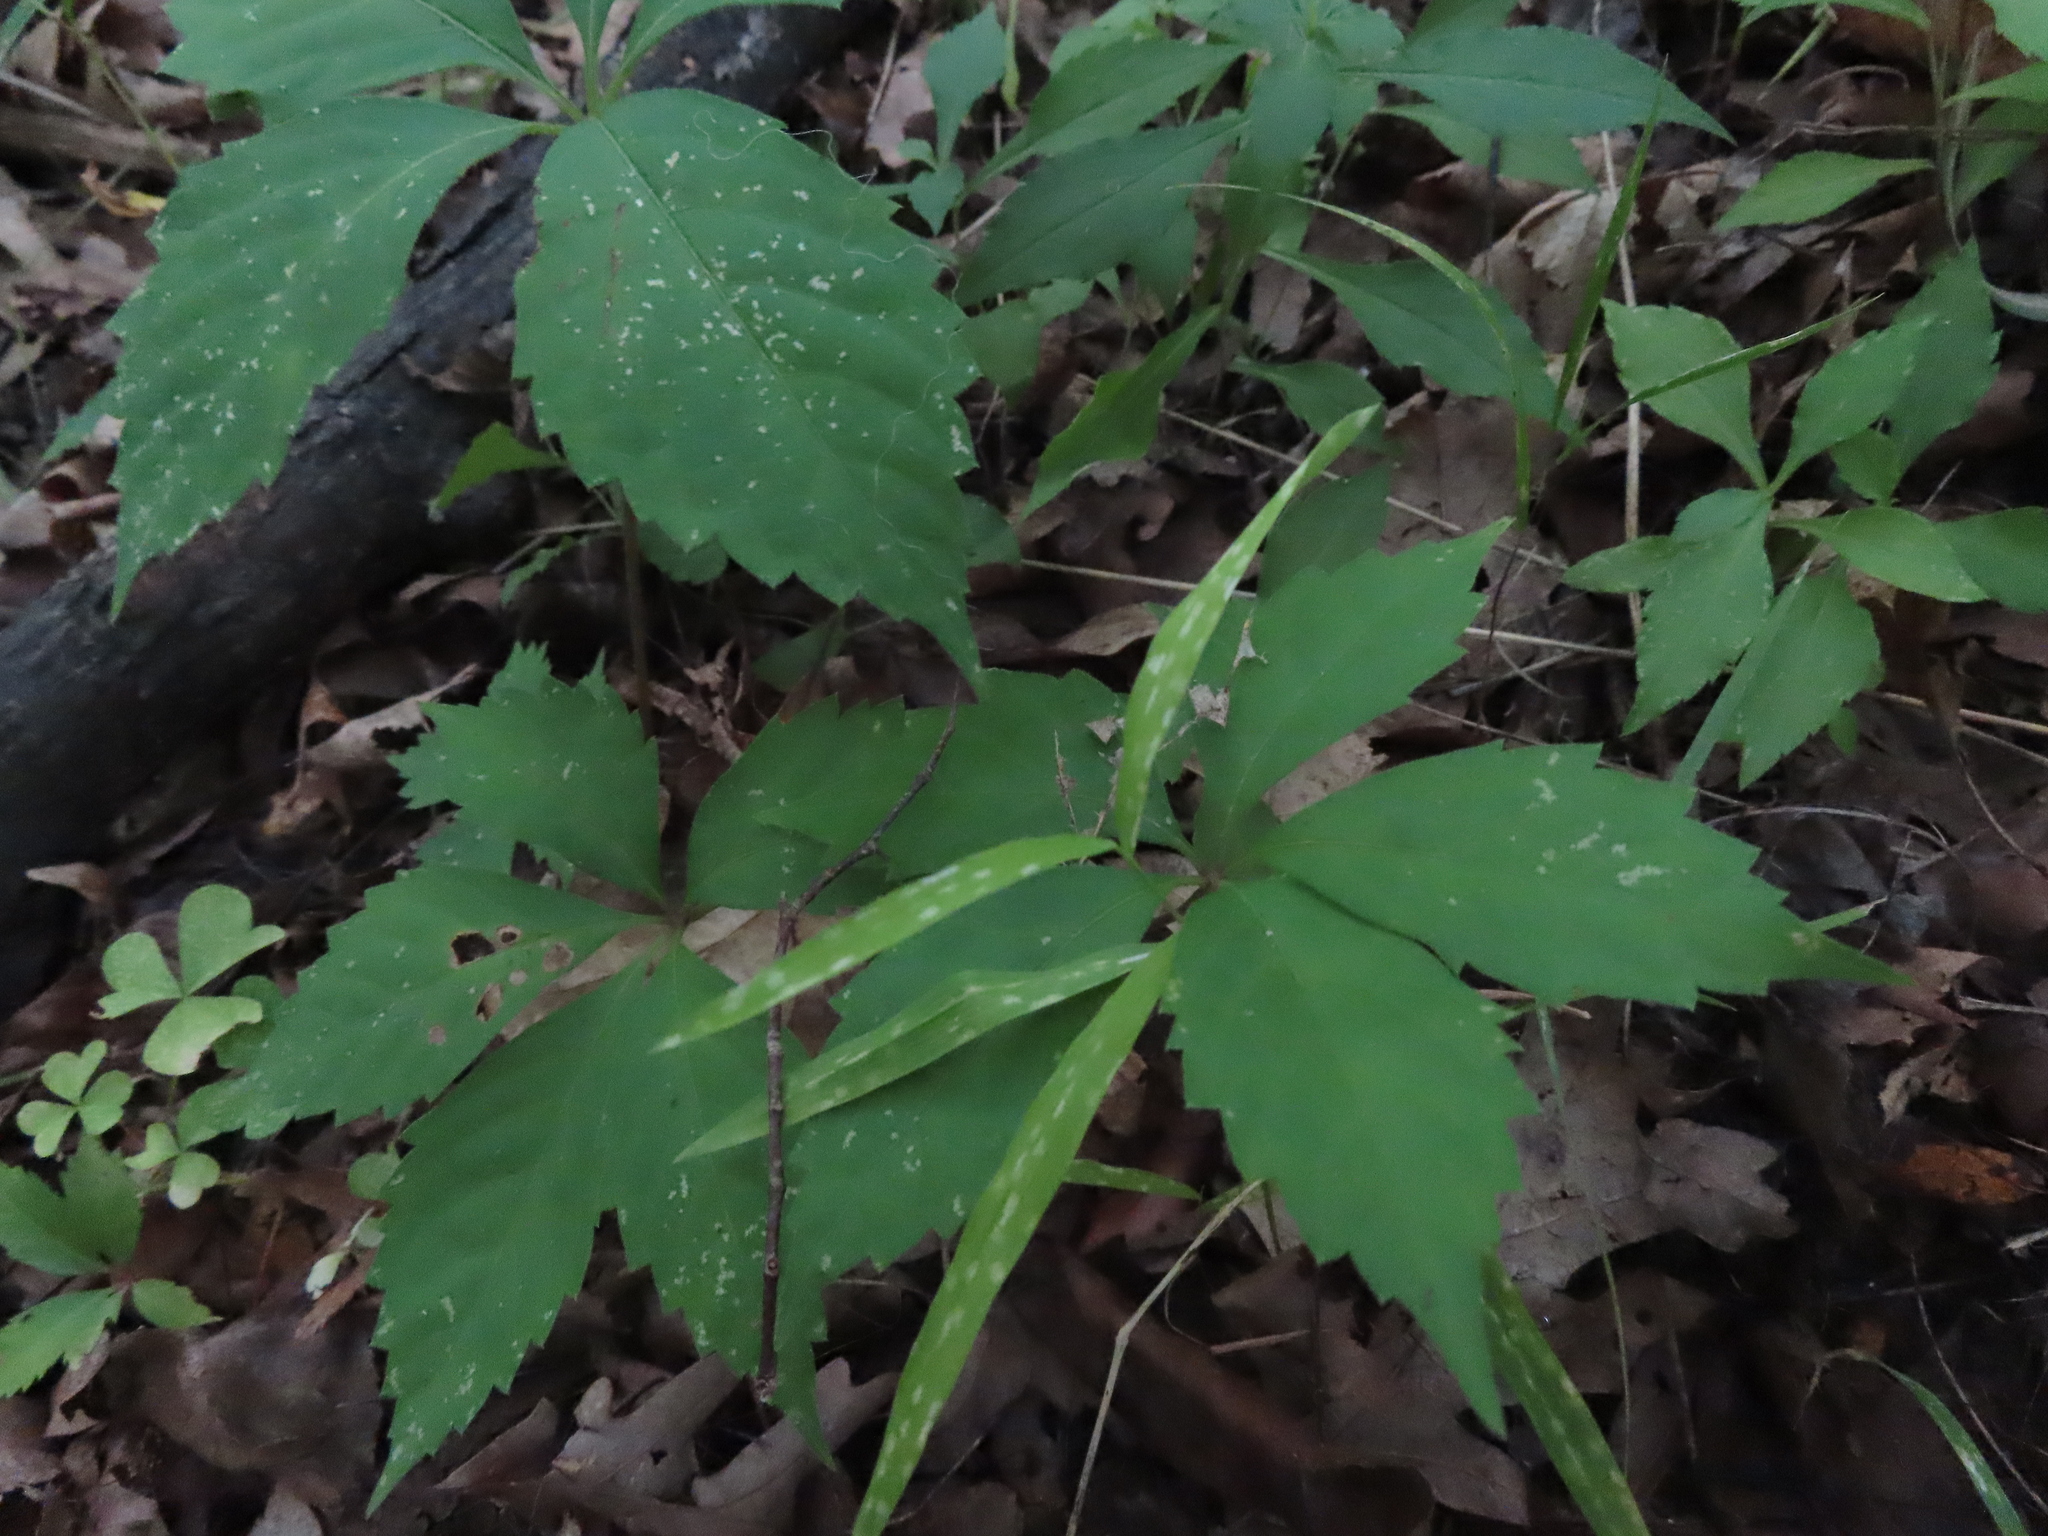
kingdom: Plantae
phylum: Tracheophyta
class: Magnoliopsida
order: Vitales
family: Vitaceae
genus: Parthenocissus
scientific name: Parthenocissus quinquefolia
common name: Virginia-creeper
